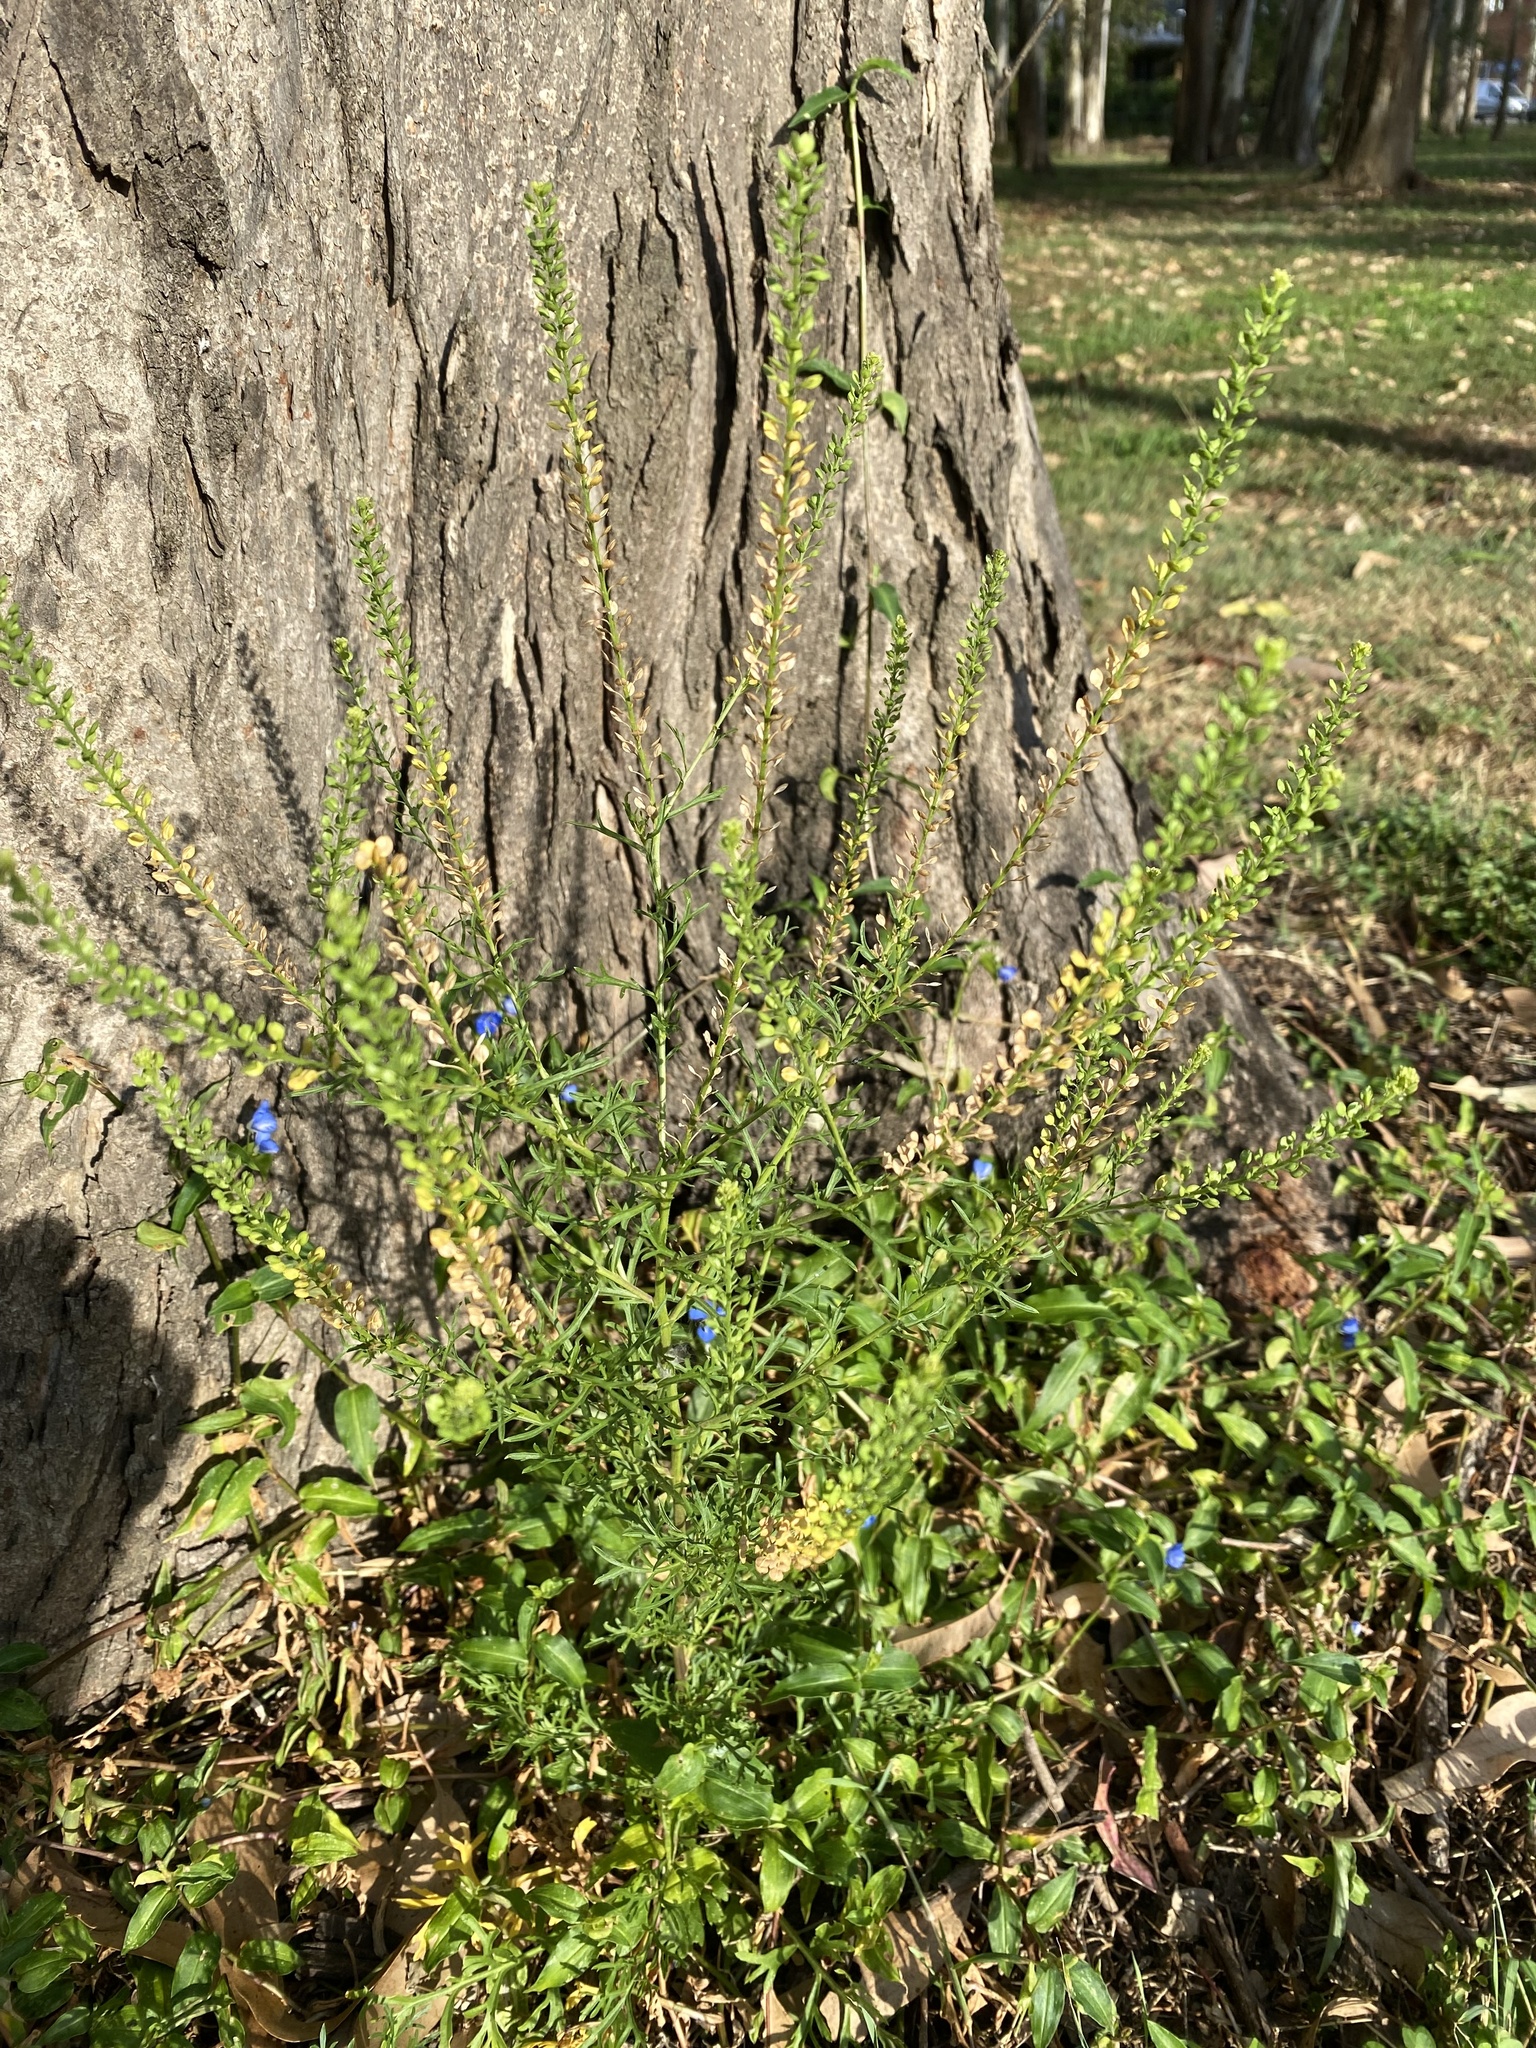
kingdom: Plantae
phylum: Tracheophyta
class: Magnoliopsida
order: Brassicales
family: Brassicaceae
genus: Lepidium
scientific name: Lepidium bonariense
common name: Argentine pepperwort
